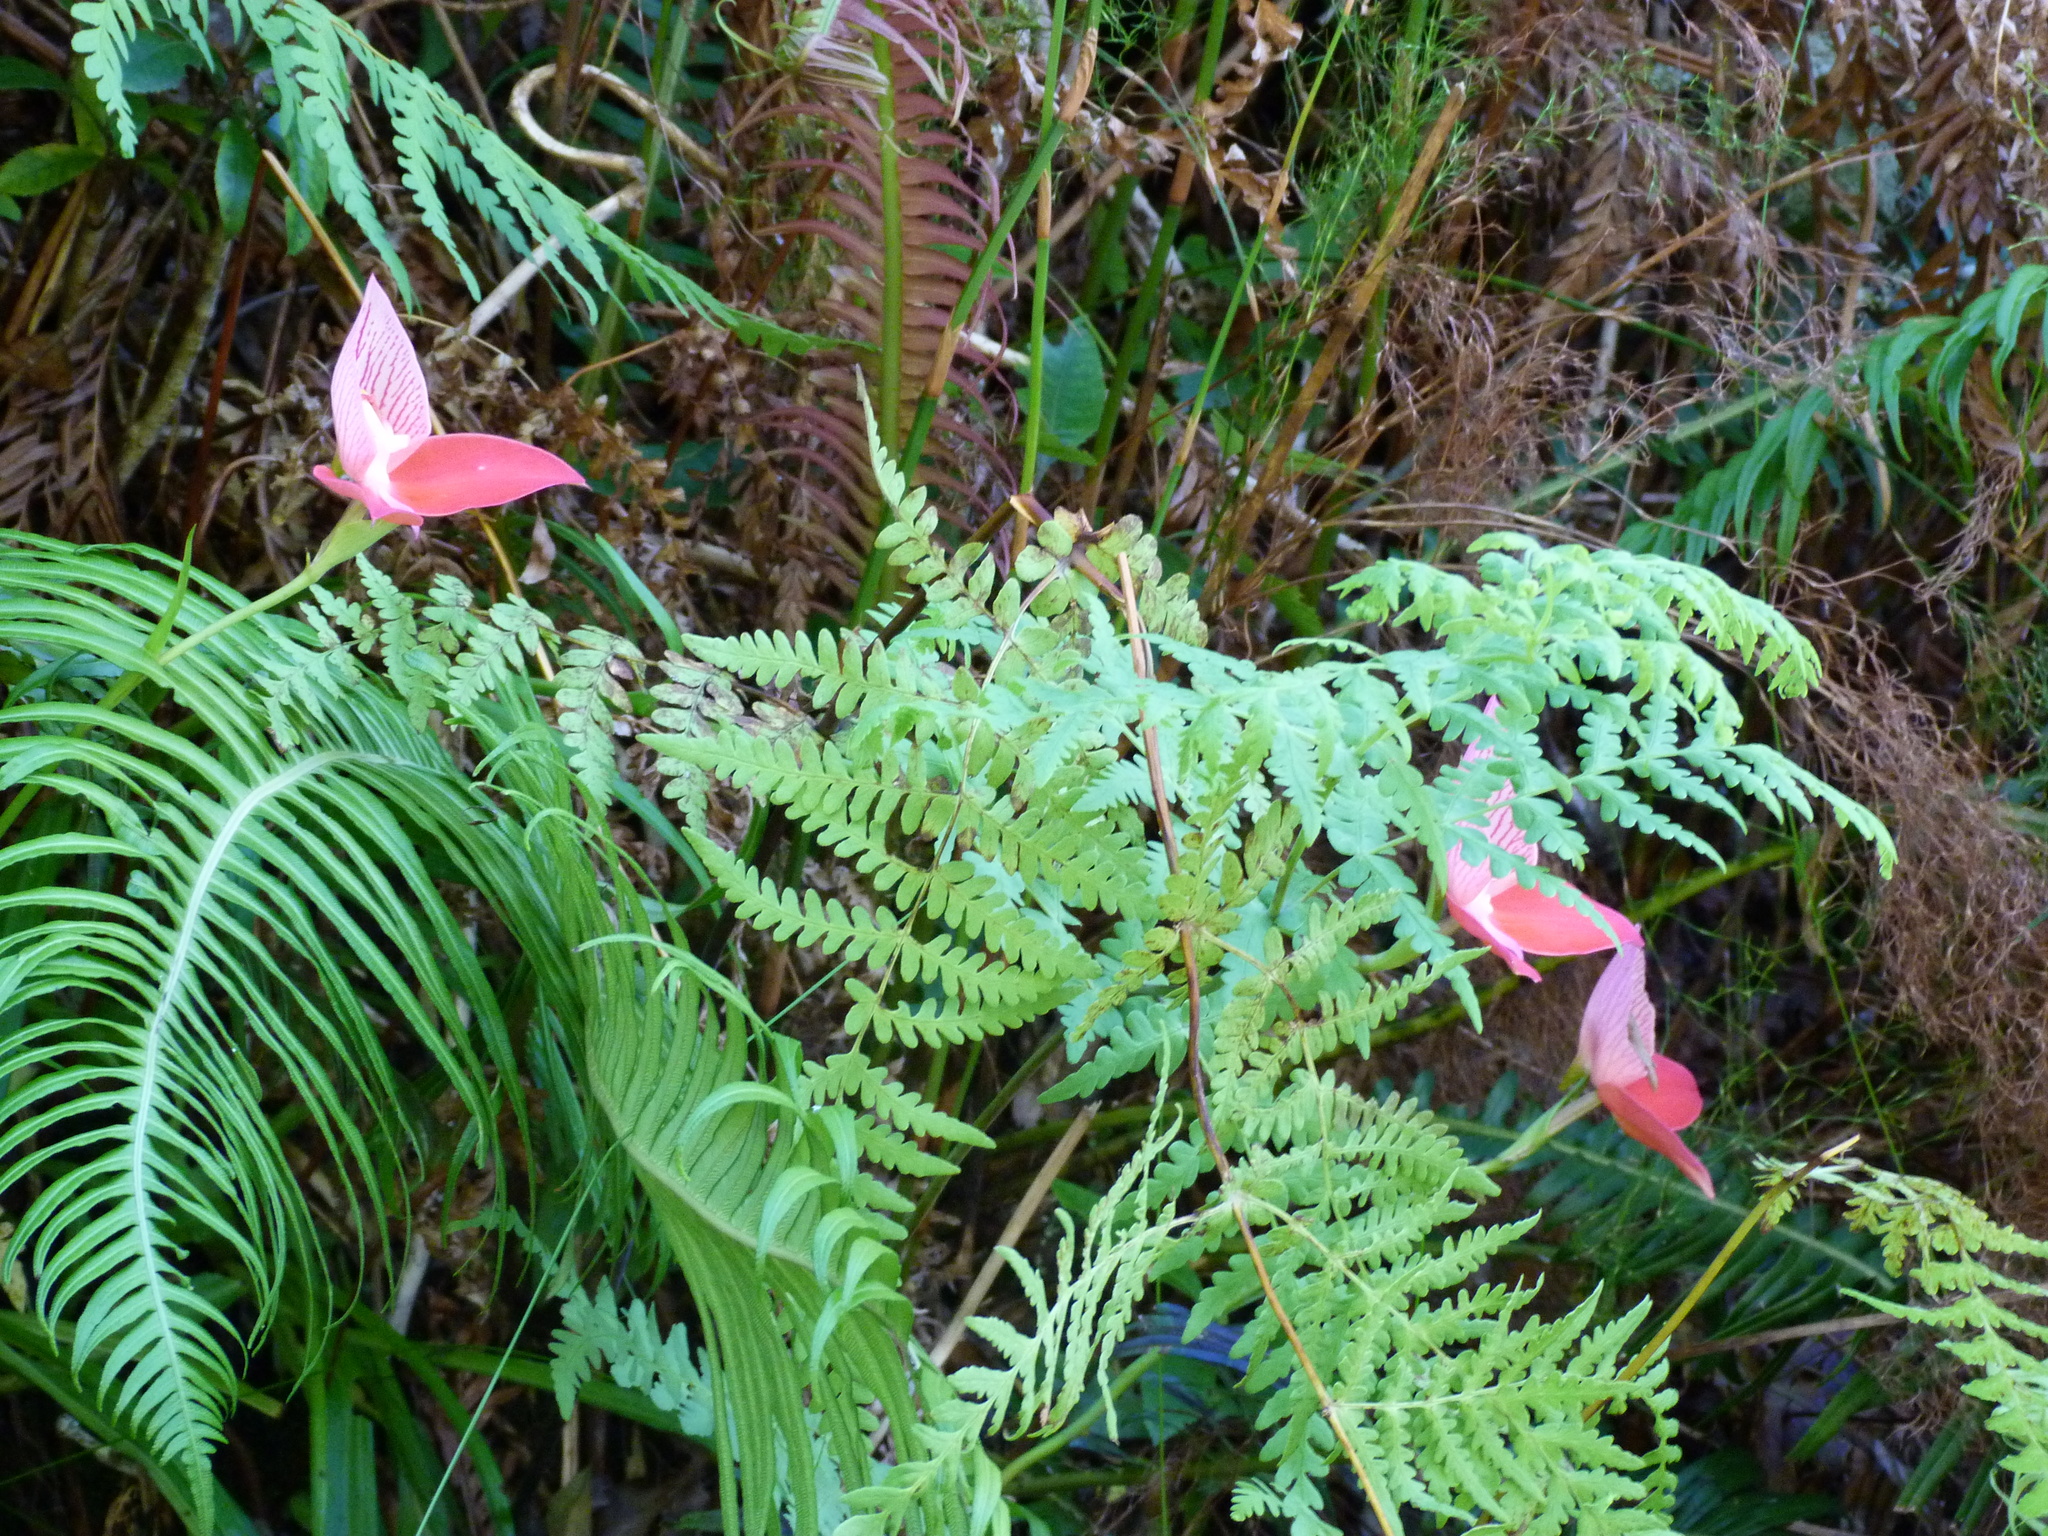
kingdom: Plantae
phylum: Tracheophyta
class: Liliopsida
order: Asparagales
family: Orchidaceae
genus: Disa
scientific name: Disa uniflora
